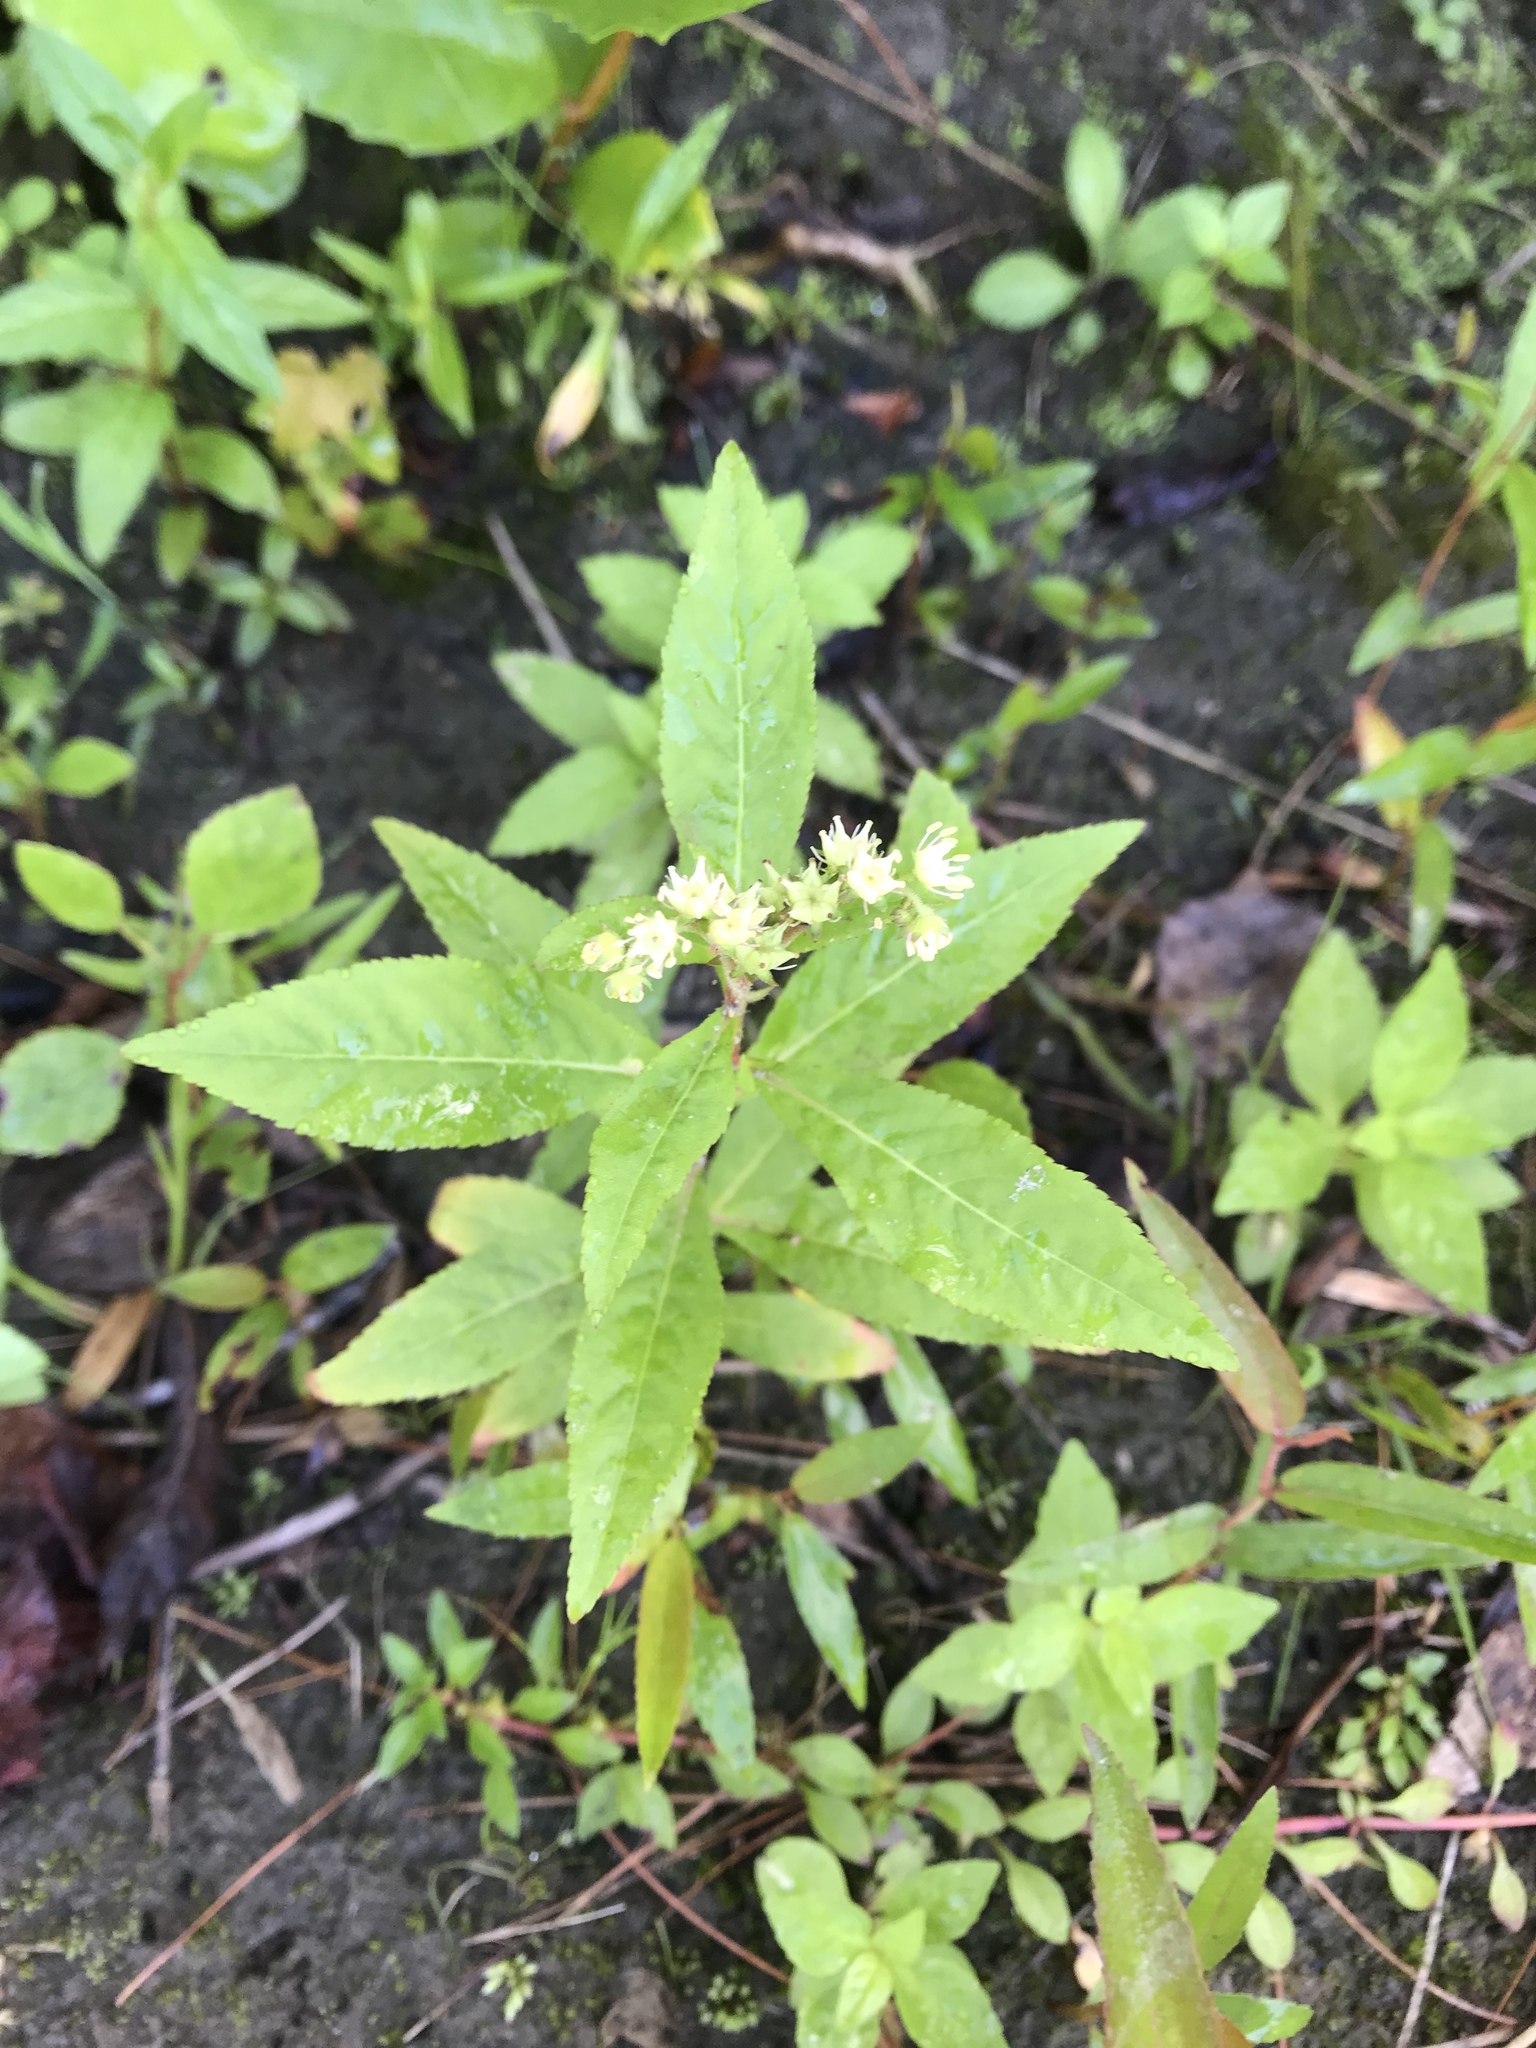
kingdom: Plantae
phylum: Tracheophyta
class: Magnoliopsida
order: Saxifragales
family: Penthoraceae
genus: Penthorum
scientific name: Penthorum sedoides
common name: Ditch stonecrop
